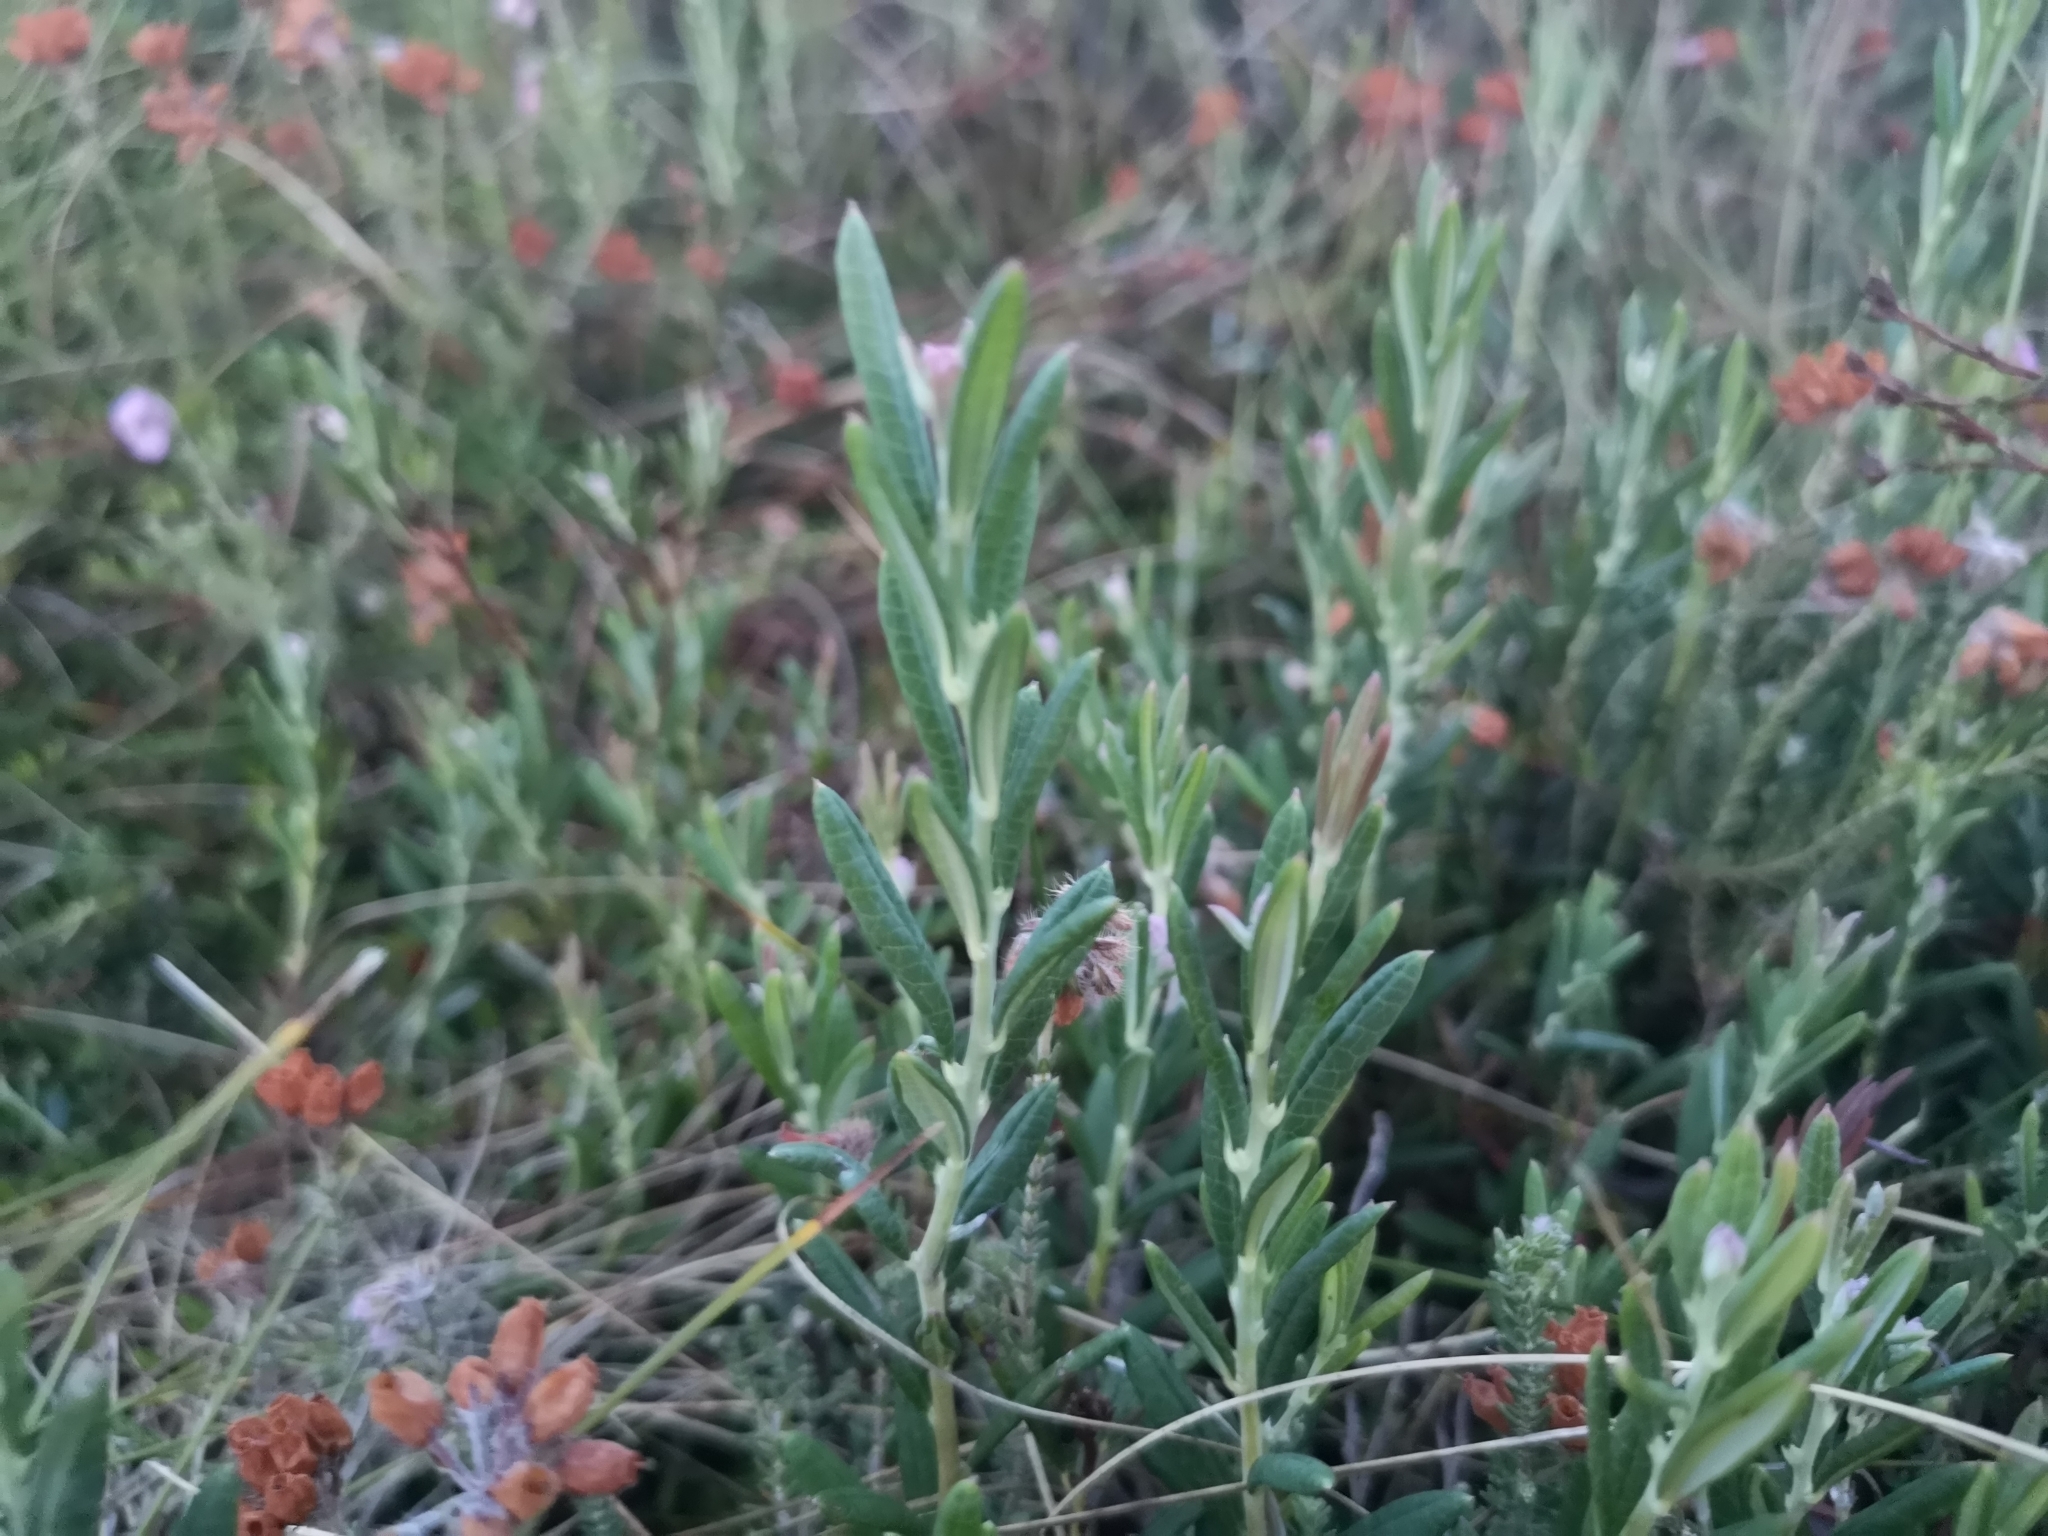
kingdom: Plantae
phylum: Tracheophyta
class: Magnoliopsida
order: Ericales
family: Ericaceae
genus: Andromeda
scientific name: Andromeda polifolia
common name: Bog-rosemary
